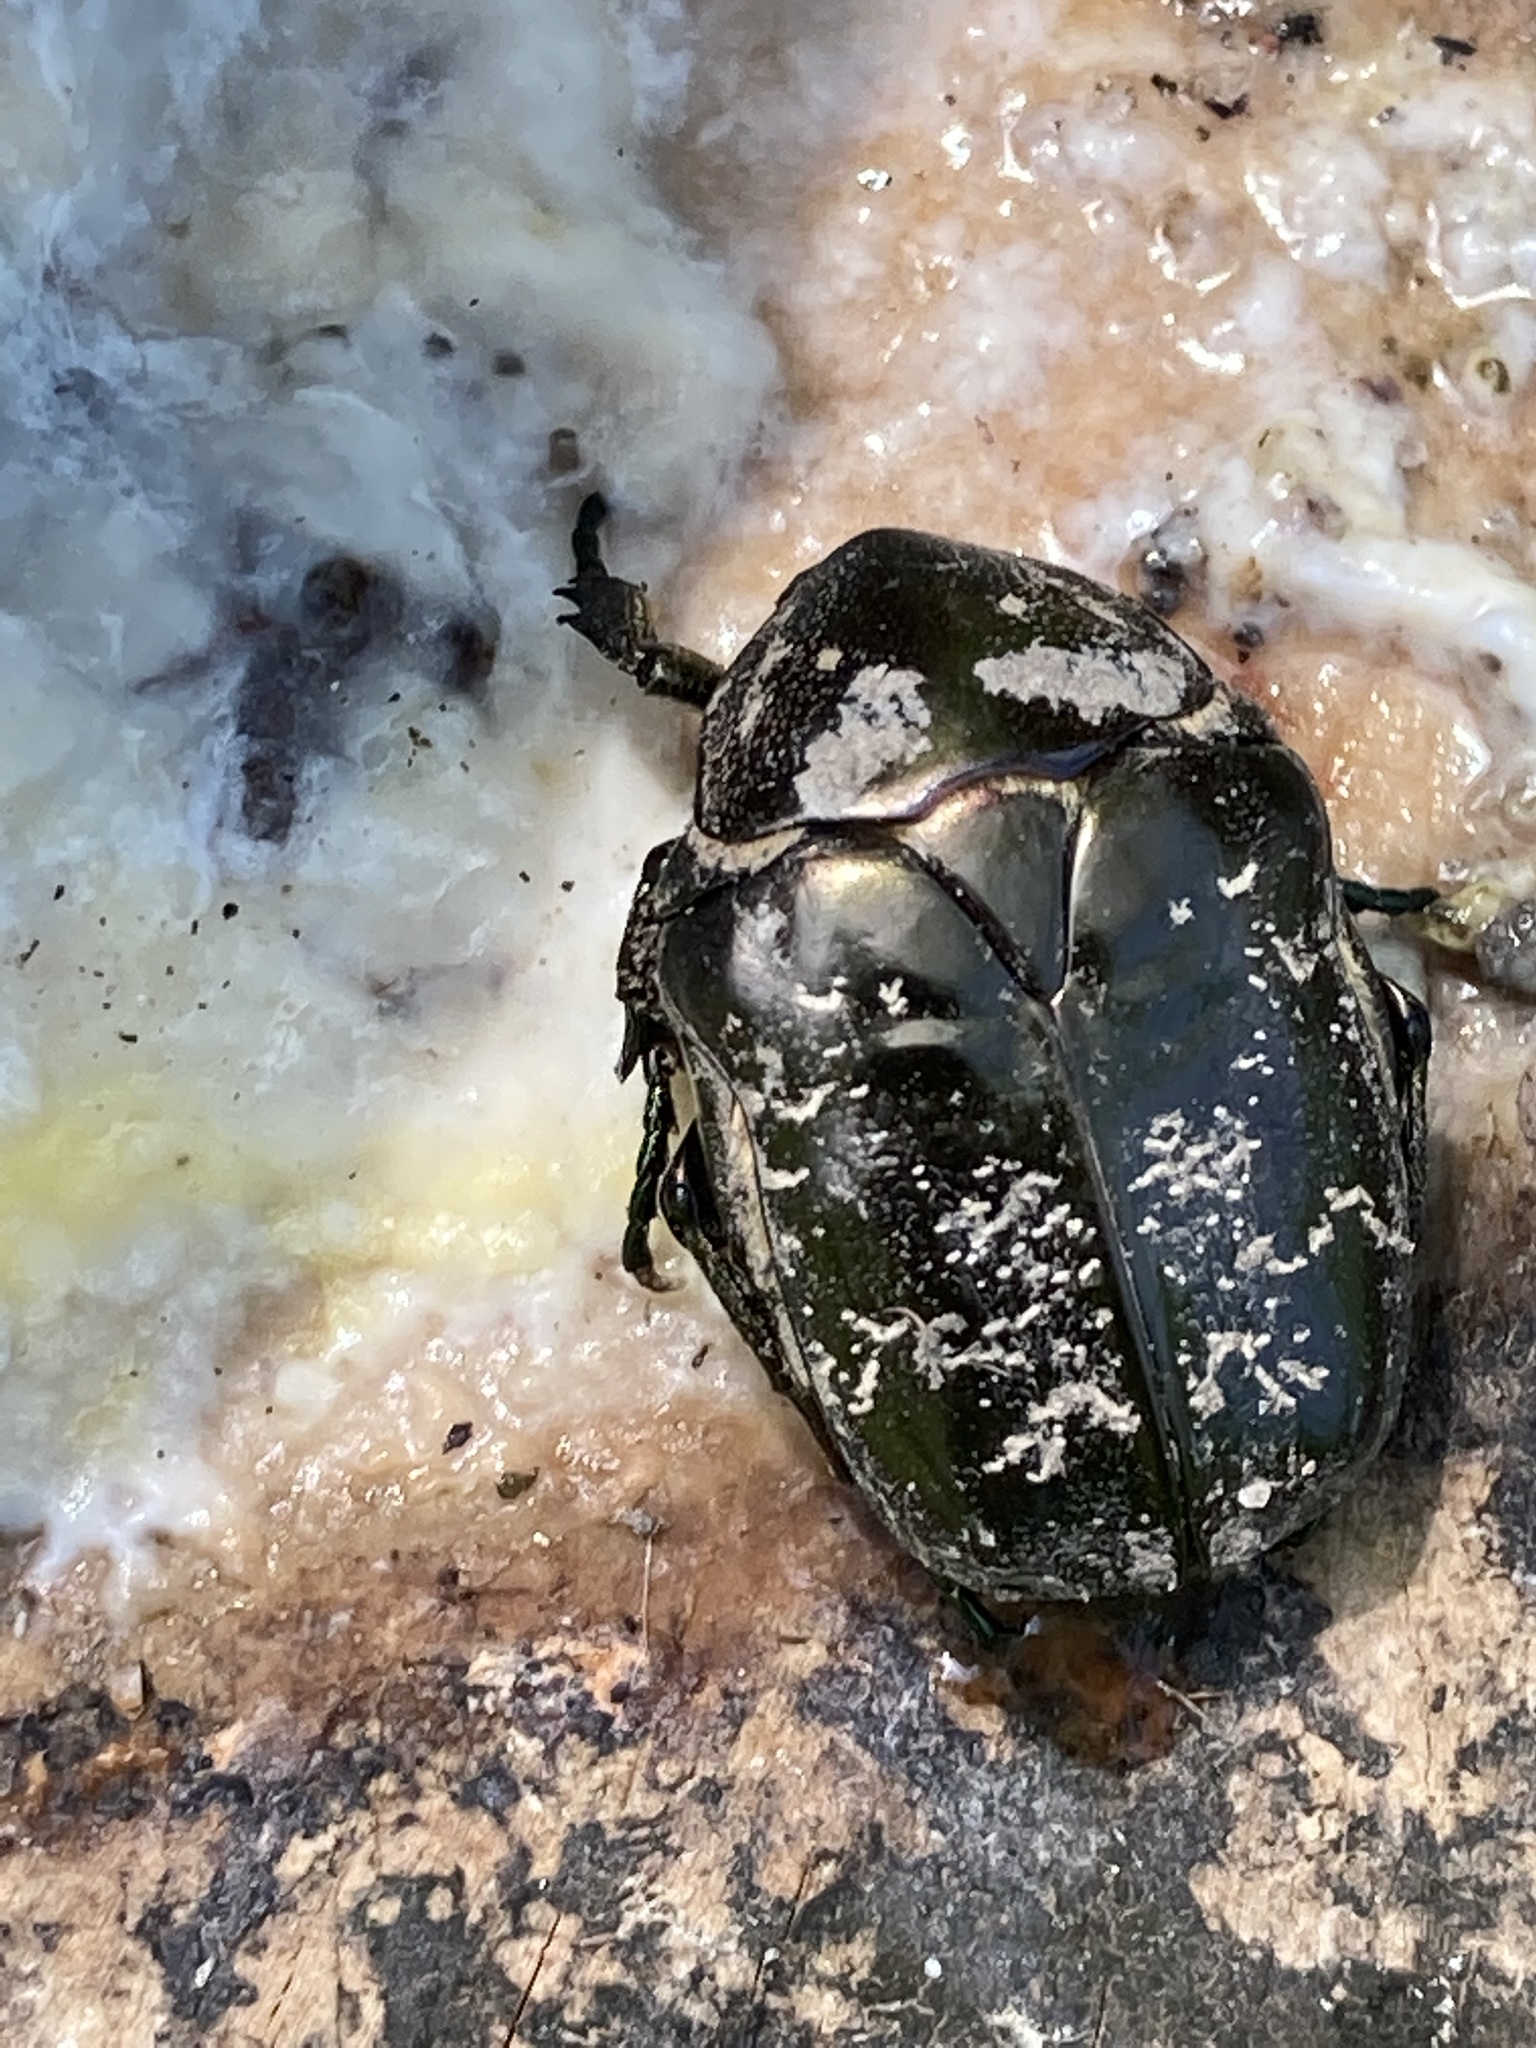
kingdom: Animalia
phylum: Arthropoda
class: Insecta
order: Coleoptera
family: Scarabaeidae
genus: Protaetia
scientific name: Protaetia marmorata
